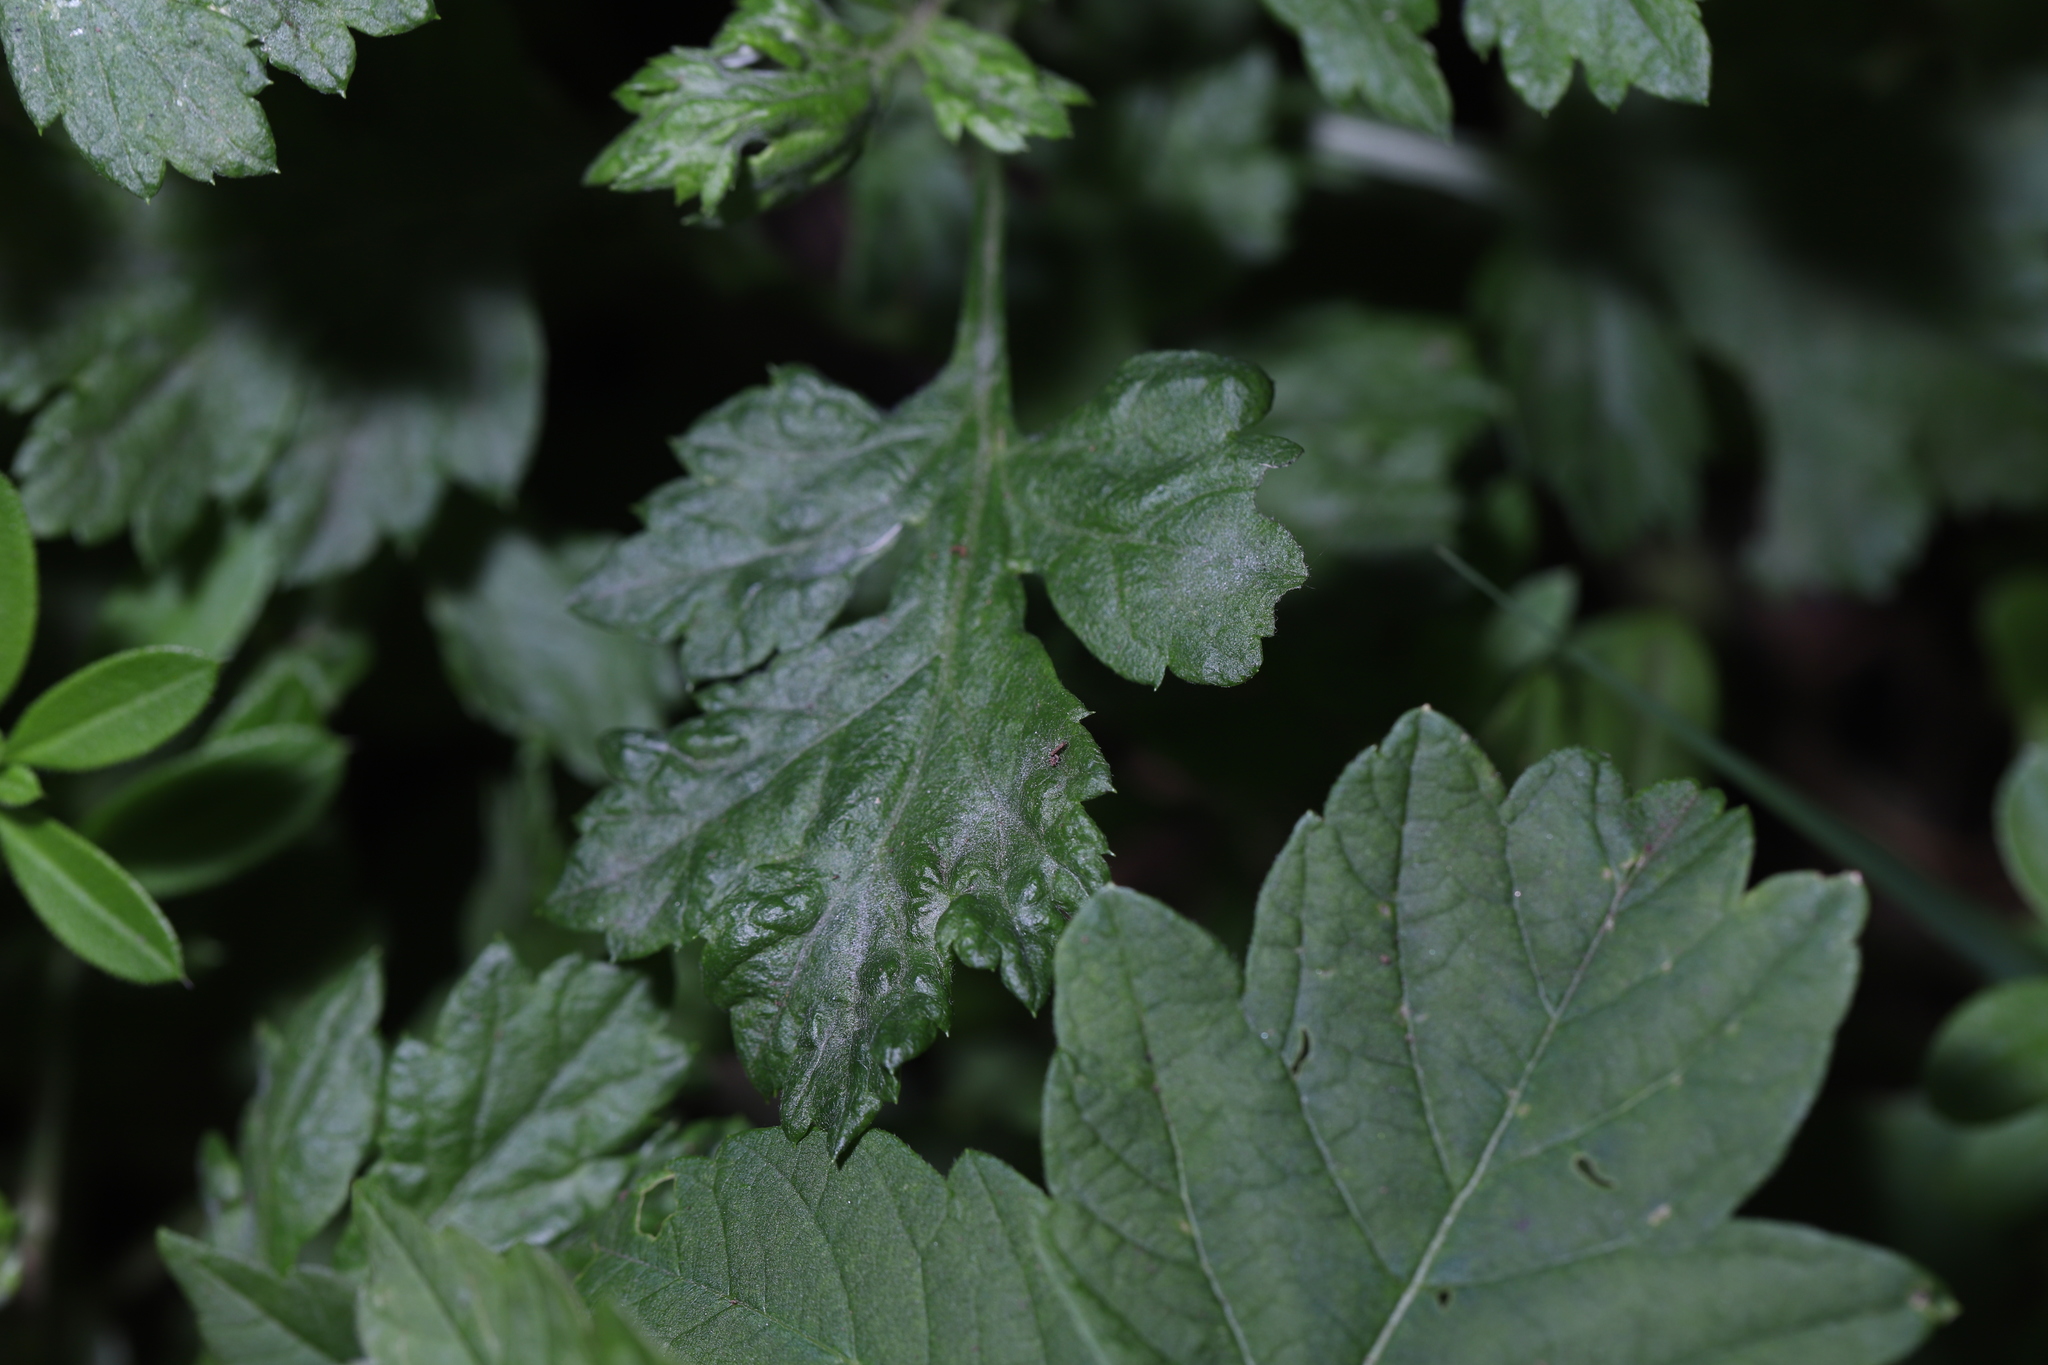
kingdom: Fungi
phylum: Ascomycota
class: Leotiomycetes
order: Helotiales
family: Erysiphaceae
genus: Golovinomyces
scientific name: Golovinomyces artemisiae
